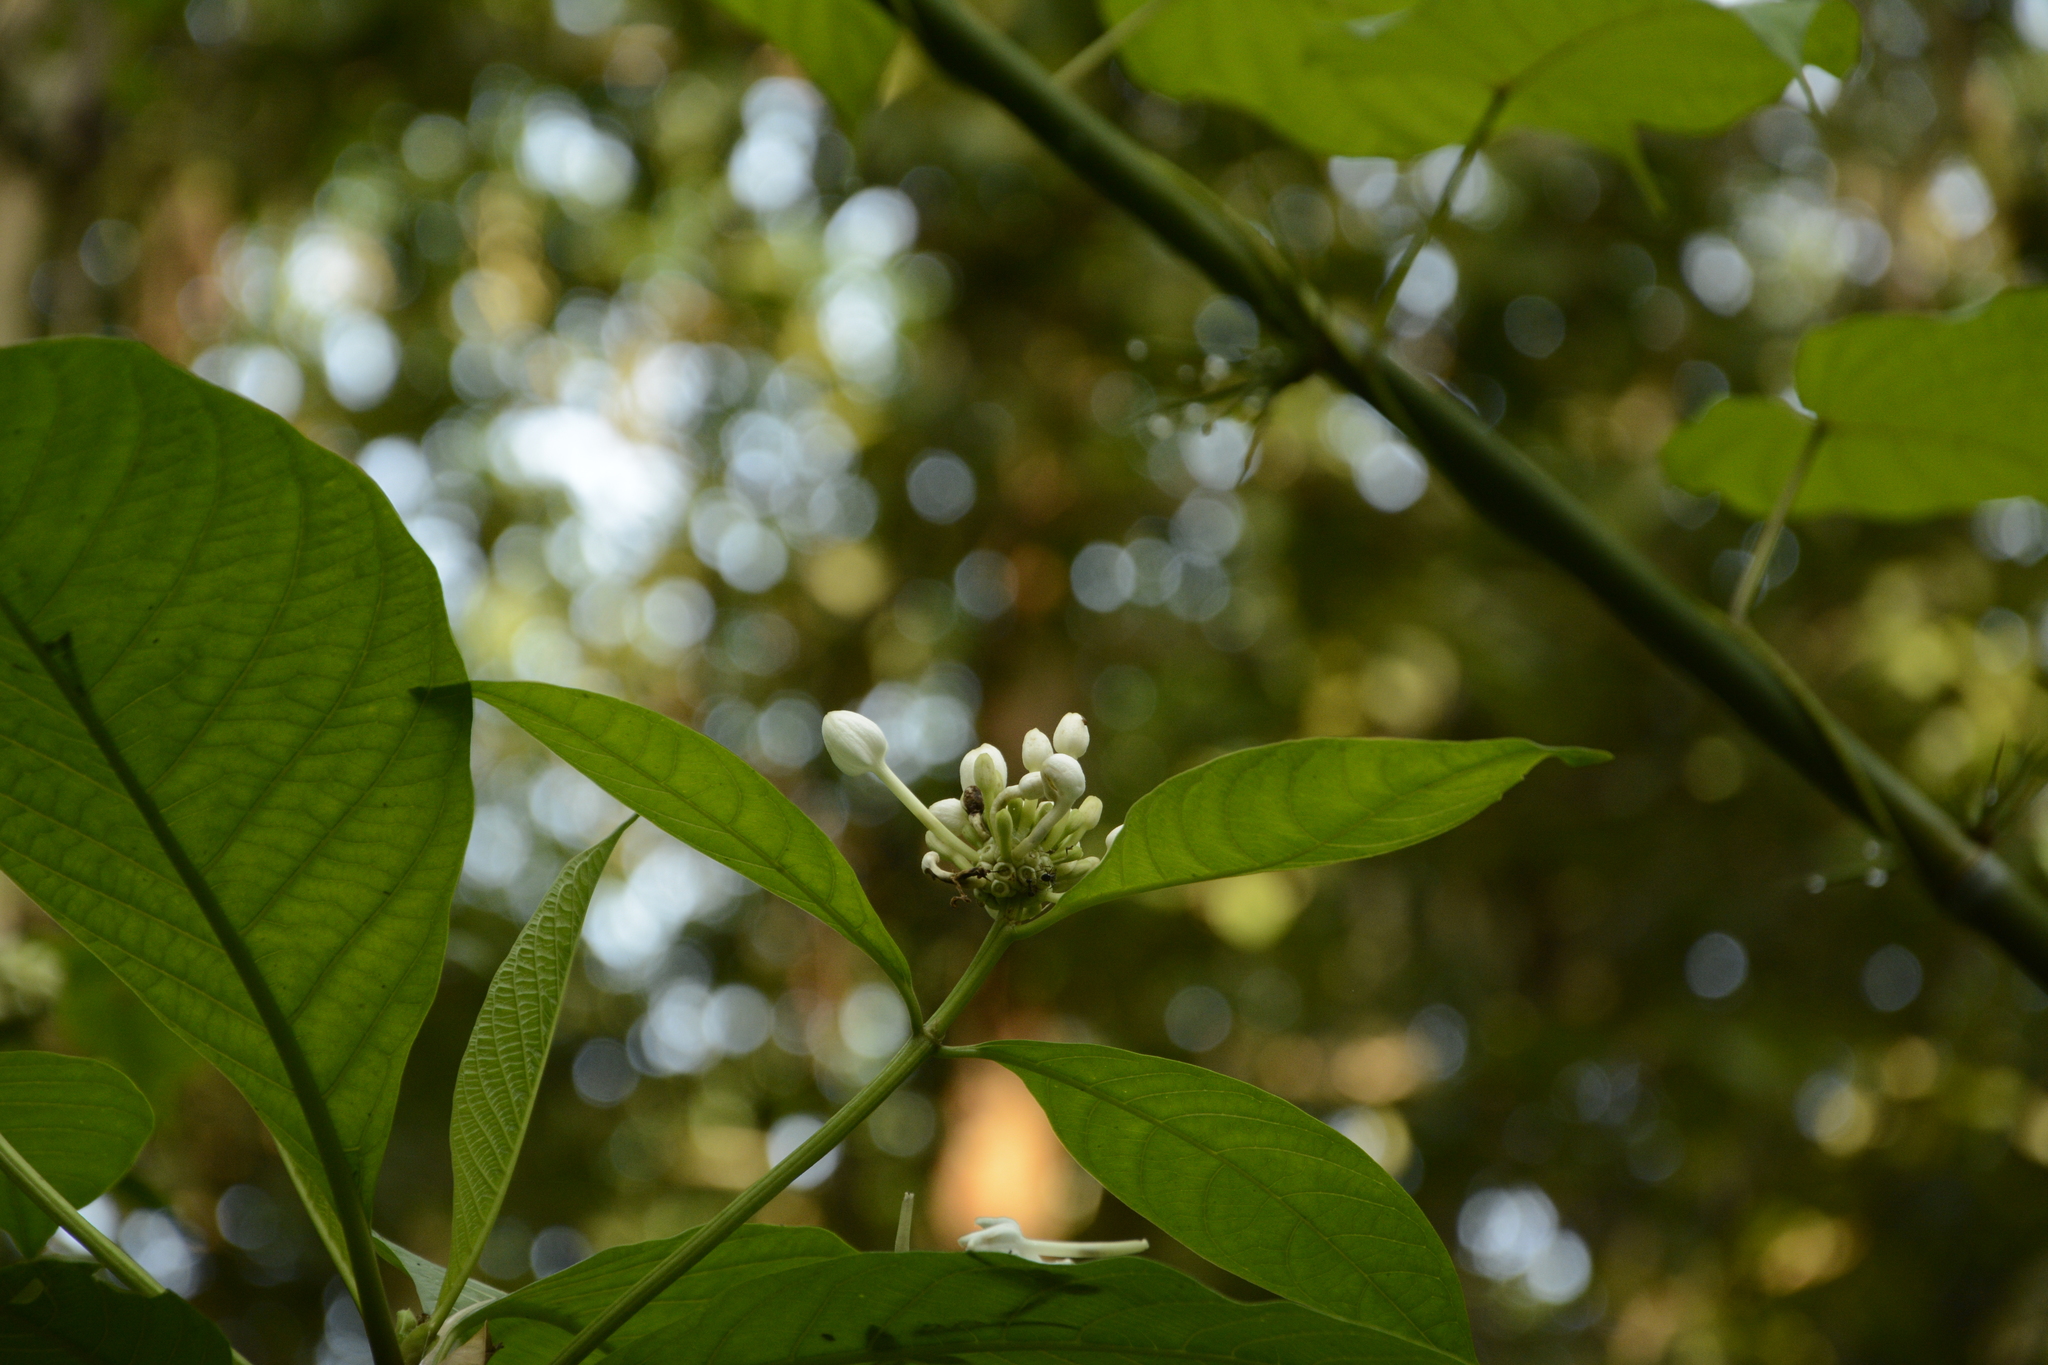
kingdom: Plantae
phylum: Tracheophyta
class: Magnoliopsida
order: Gentianales
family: Rubiaceae
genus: Morinda
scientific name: Morinda angustifolia
